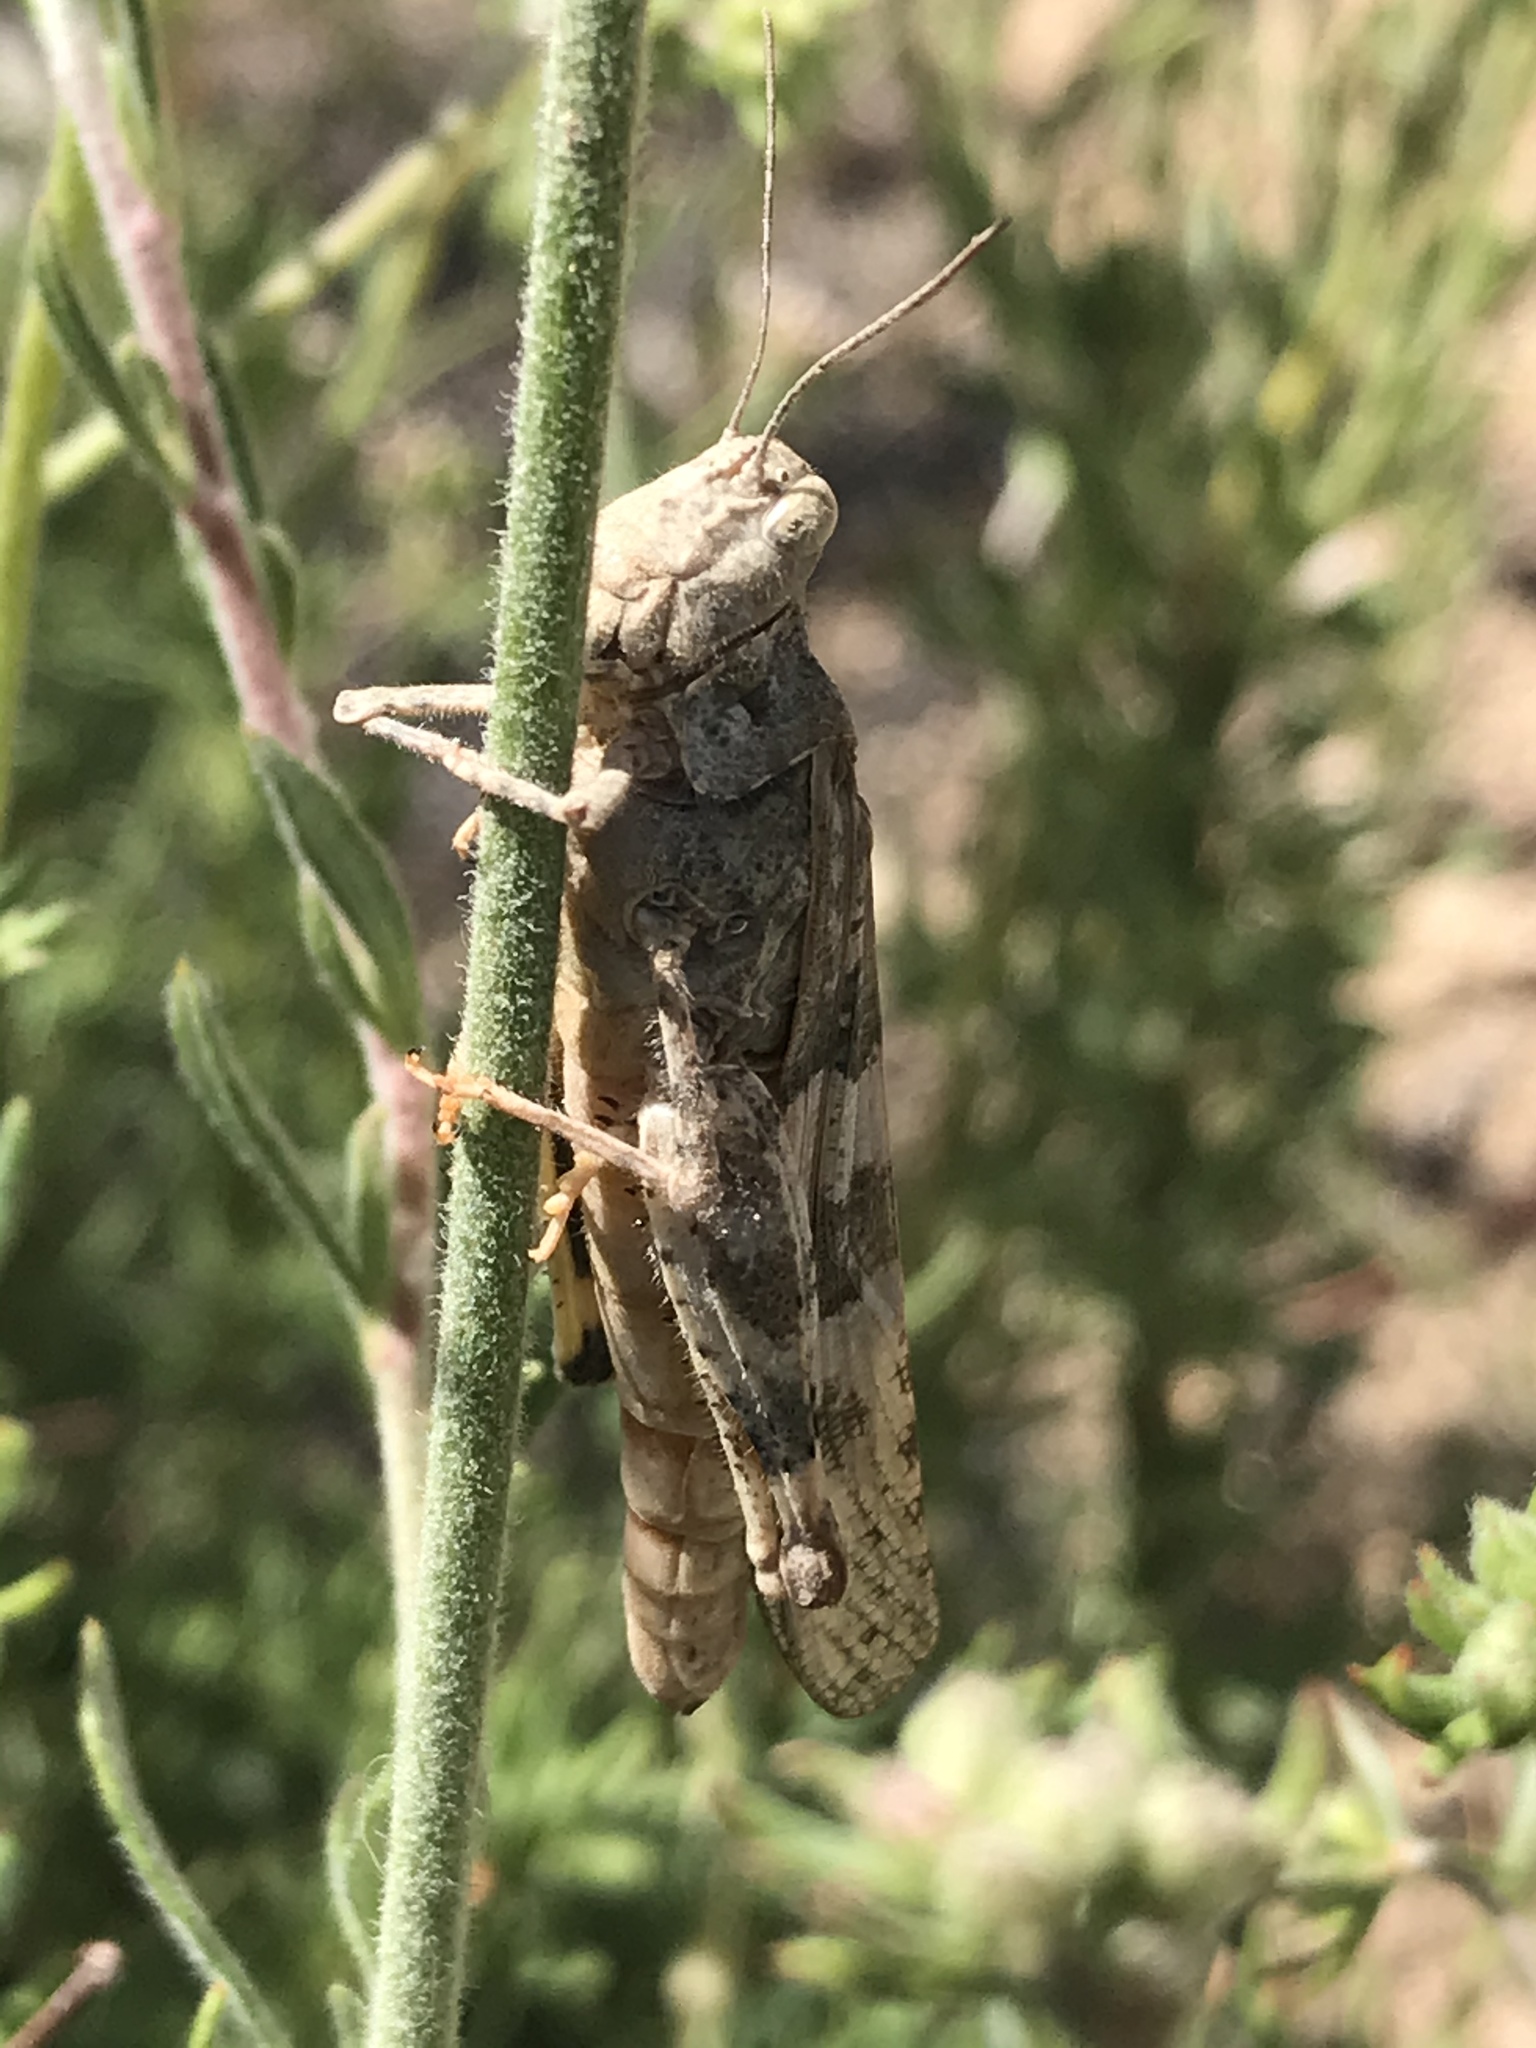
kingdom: Animalia
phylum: Arthropoda
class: Insecta
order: Orthoptera
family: Acrididae
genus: Trimerotropis
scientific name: Trimerotropis pallidipennis
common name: Pallid-winged grasshopper
